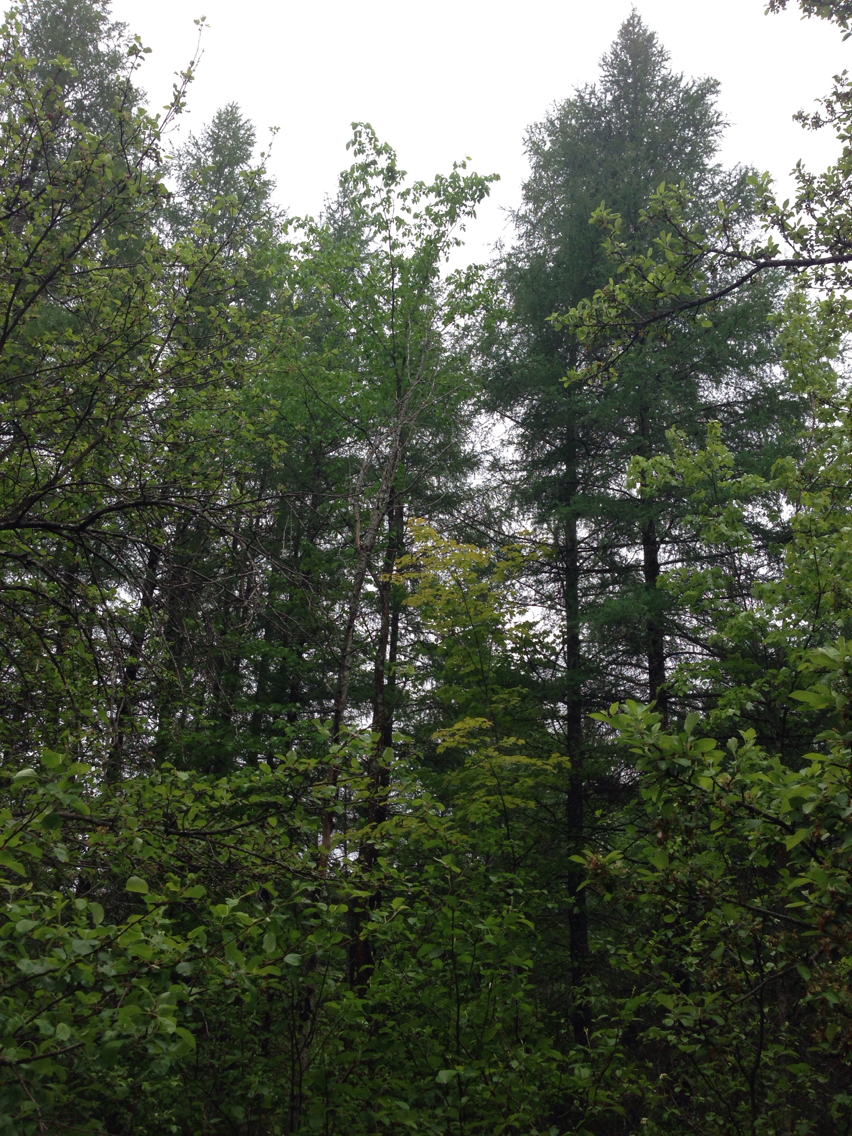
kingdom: Plantae
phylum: Tracheophyta
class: Pinopsida
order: Pinales
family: Pinaceae
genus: Larix
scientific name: Larix laricina
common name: American larch
